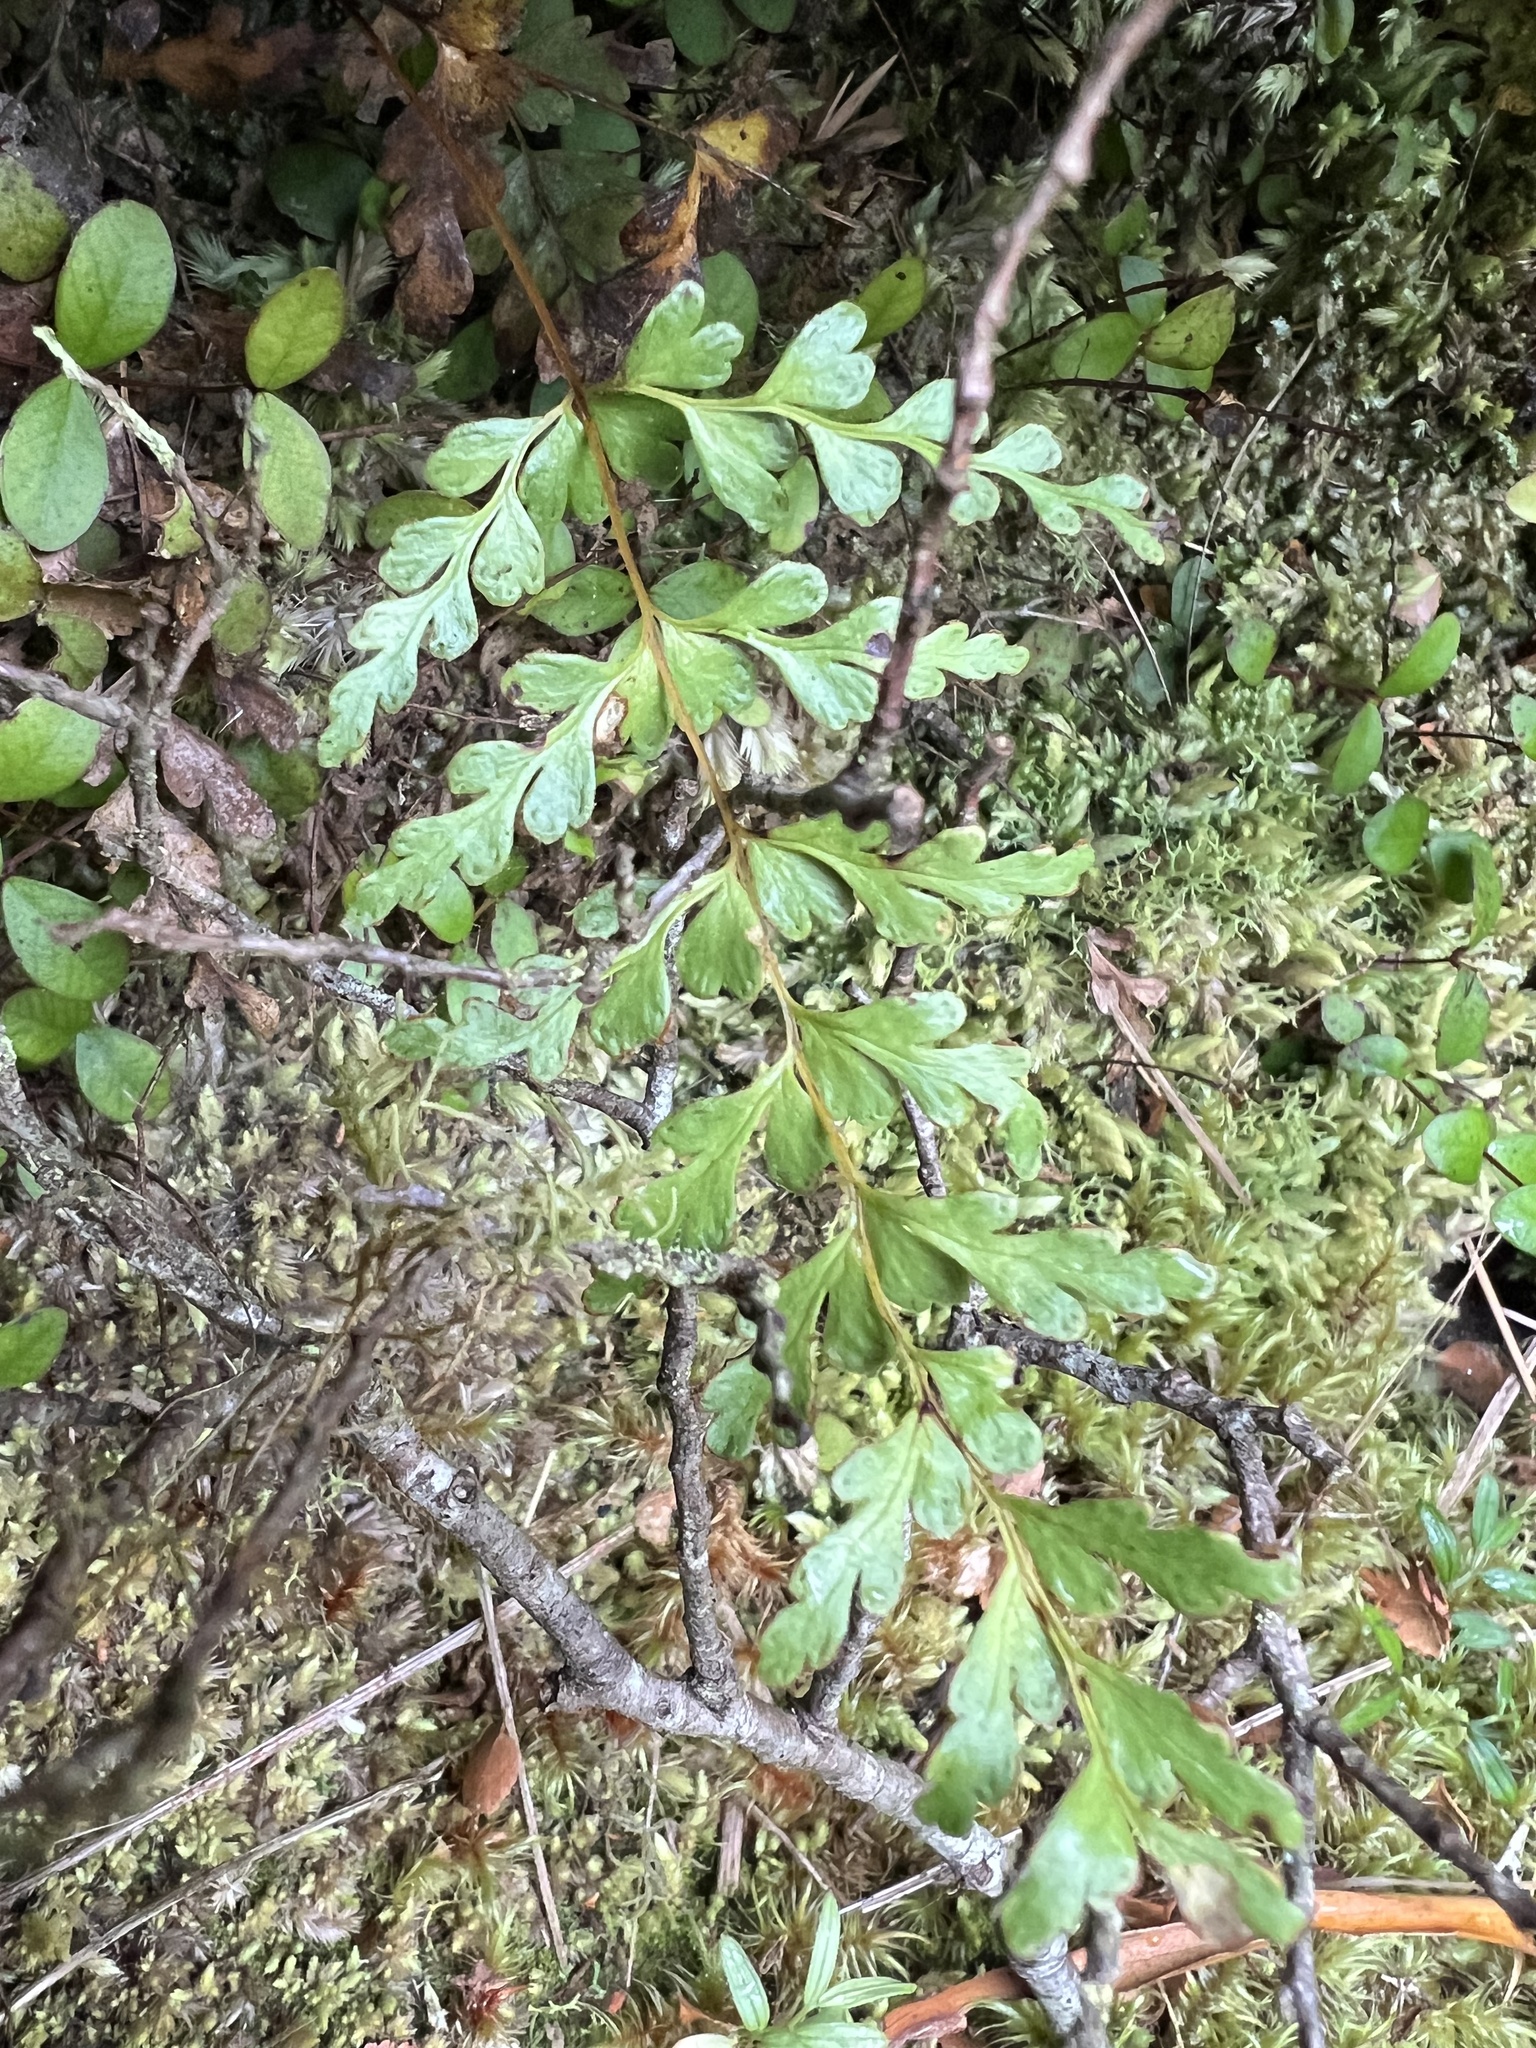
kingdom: Plantae
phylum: Tracheophyta
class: Polypodiopsida
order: Polypodiales
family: Lindsaeaceae
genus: Lindsaea
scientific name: Lindsaea trichomanoides
